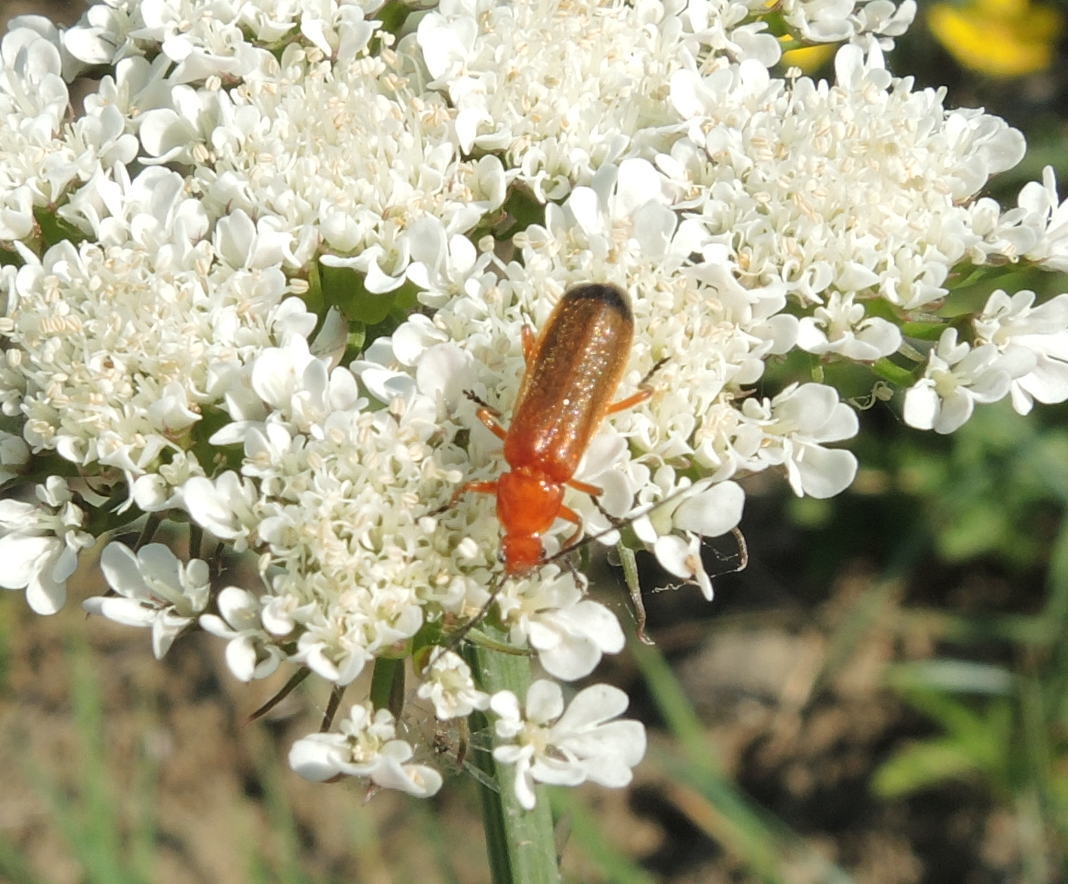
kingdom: Animalia
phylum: Arthropoda
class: Insecta
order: Coleoptera
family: Cantharidae
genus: Rhagonycha
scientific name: Rhagonycha fulva
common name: Common red soldier beetle
